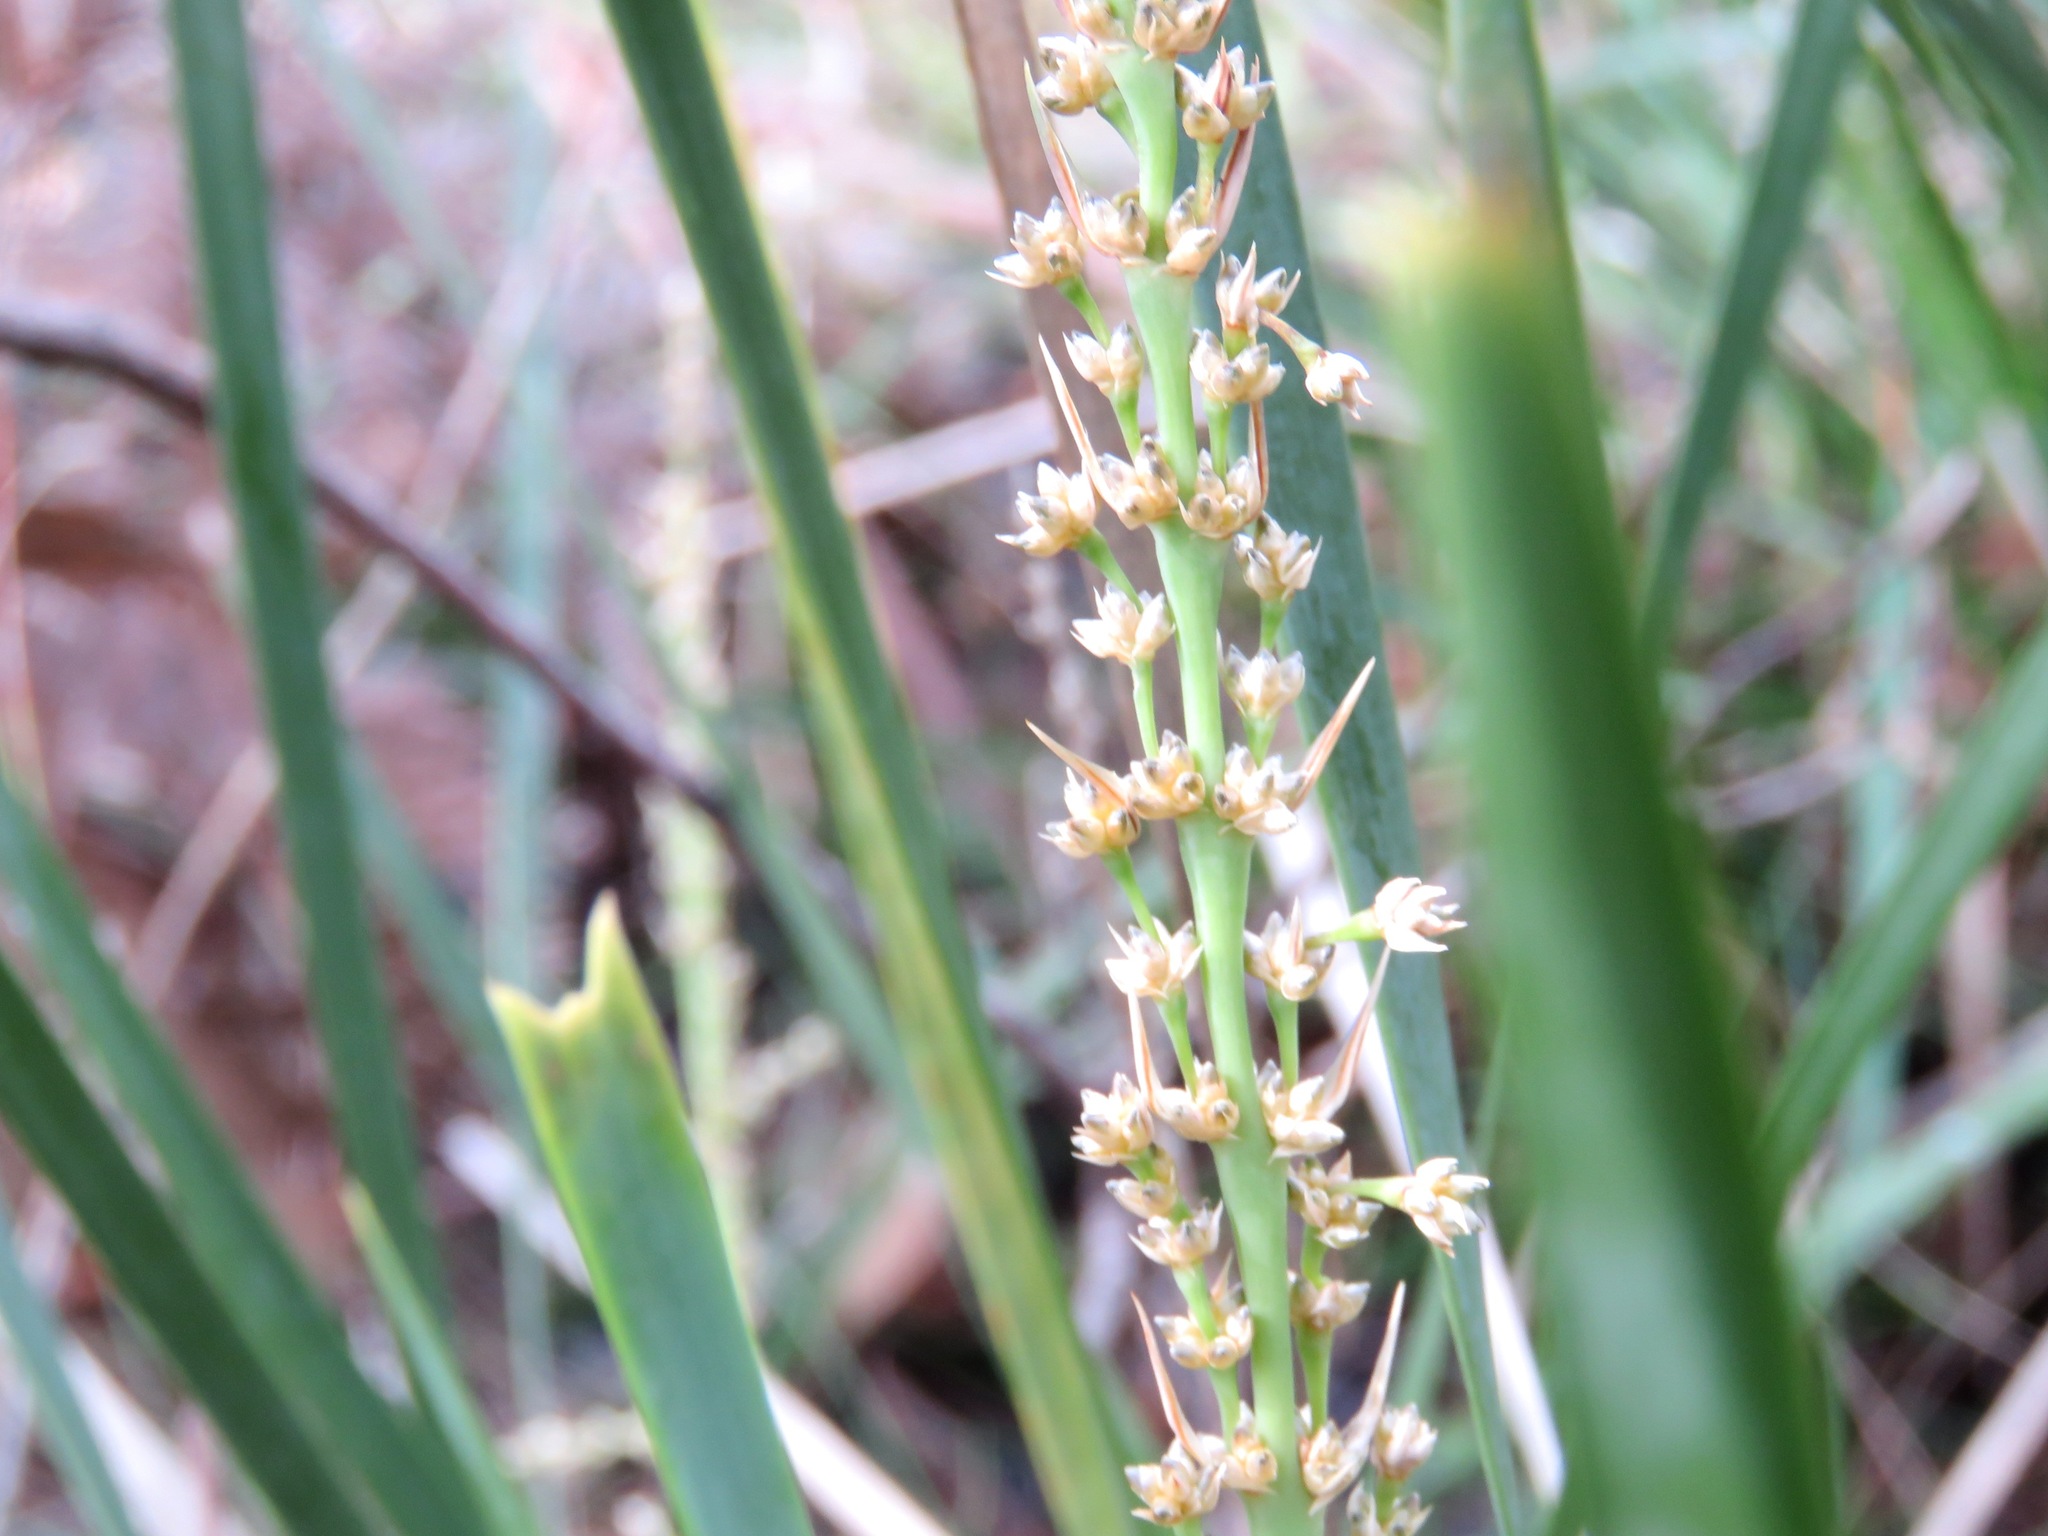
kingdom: Plantae
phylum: Tracheophyta
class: Liliopsida
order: Asparagales
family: Asparagaceae
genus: Lomandra
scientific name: Lomandra longifolia
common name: Longleaf mat-rush
